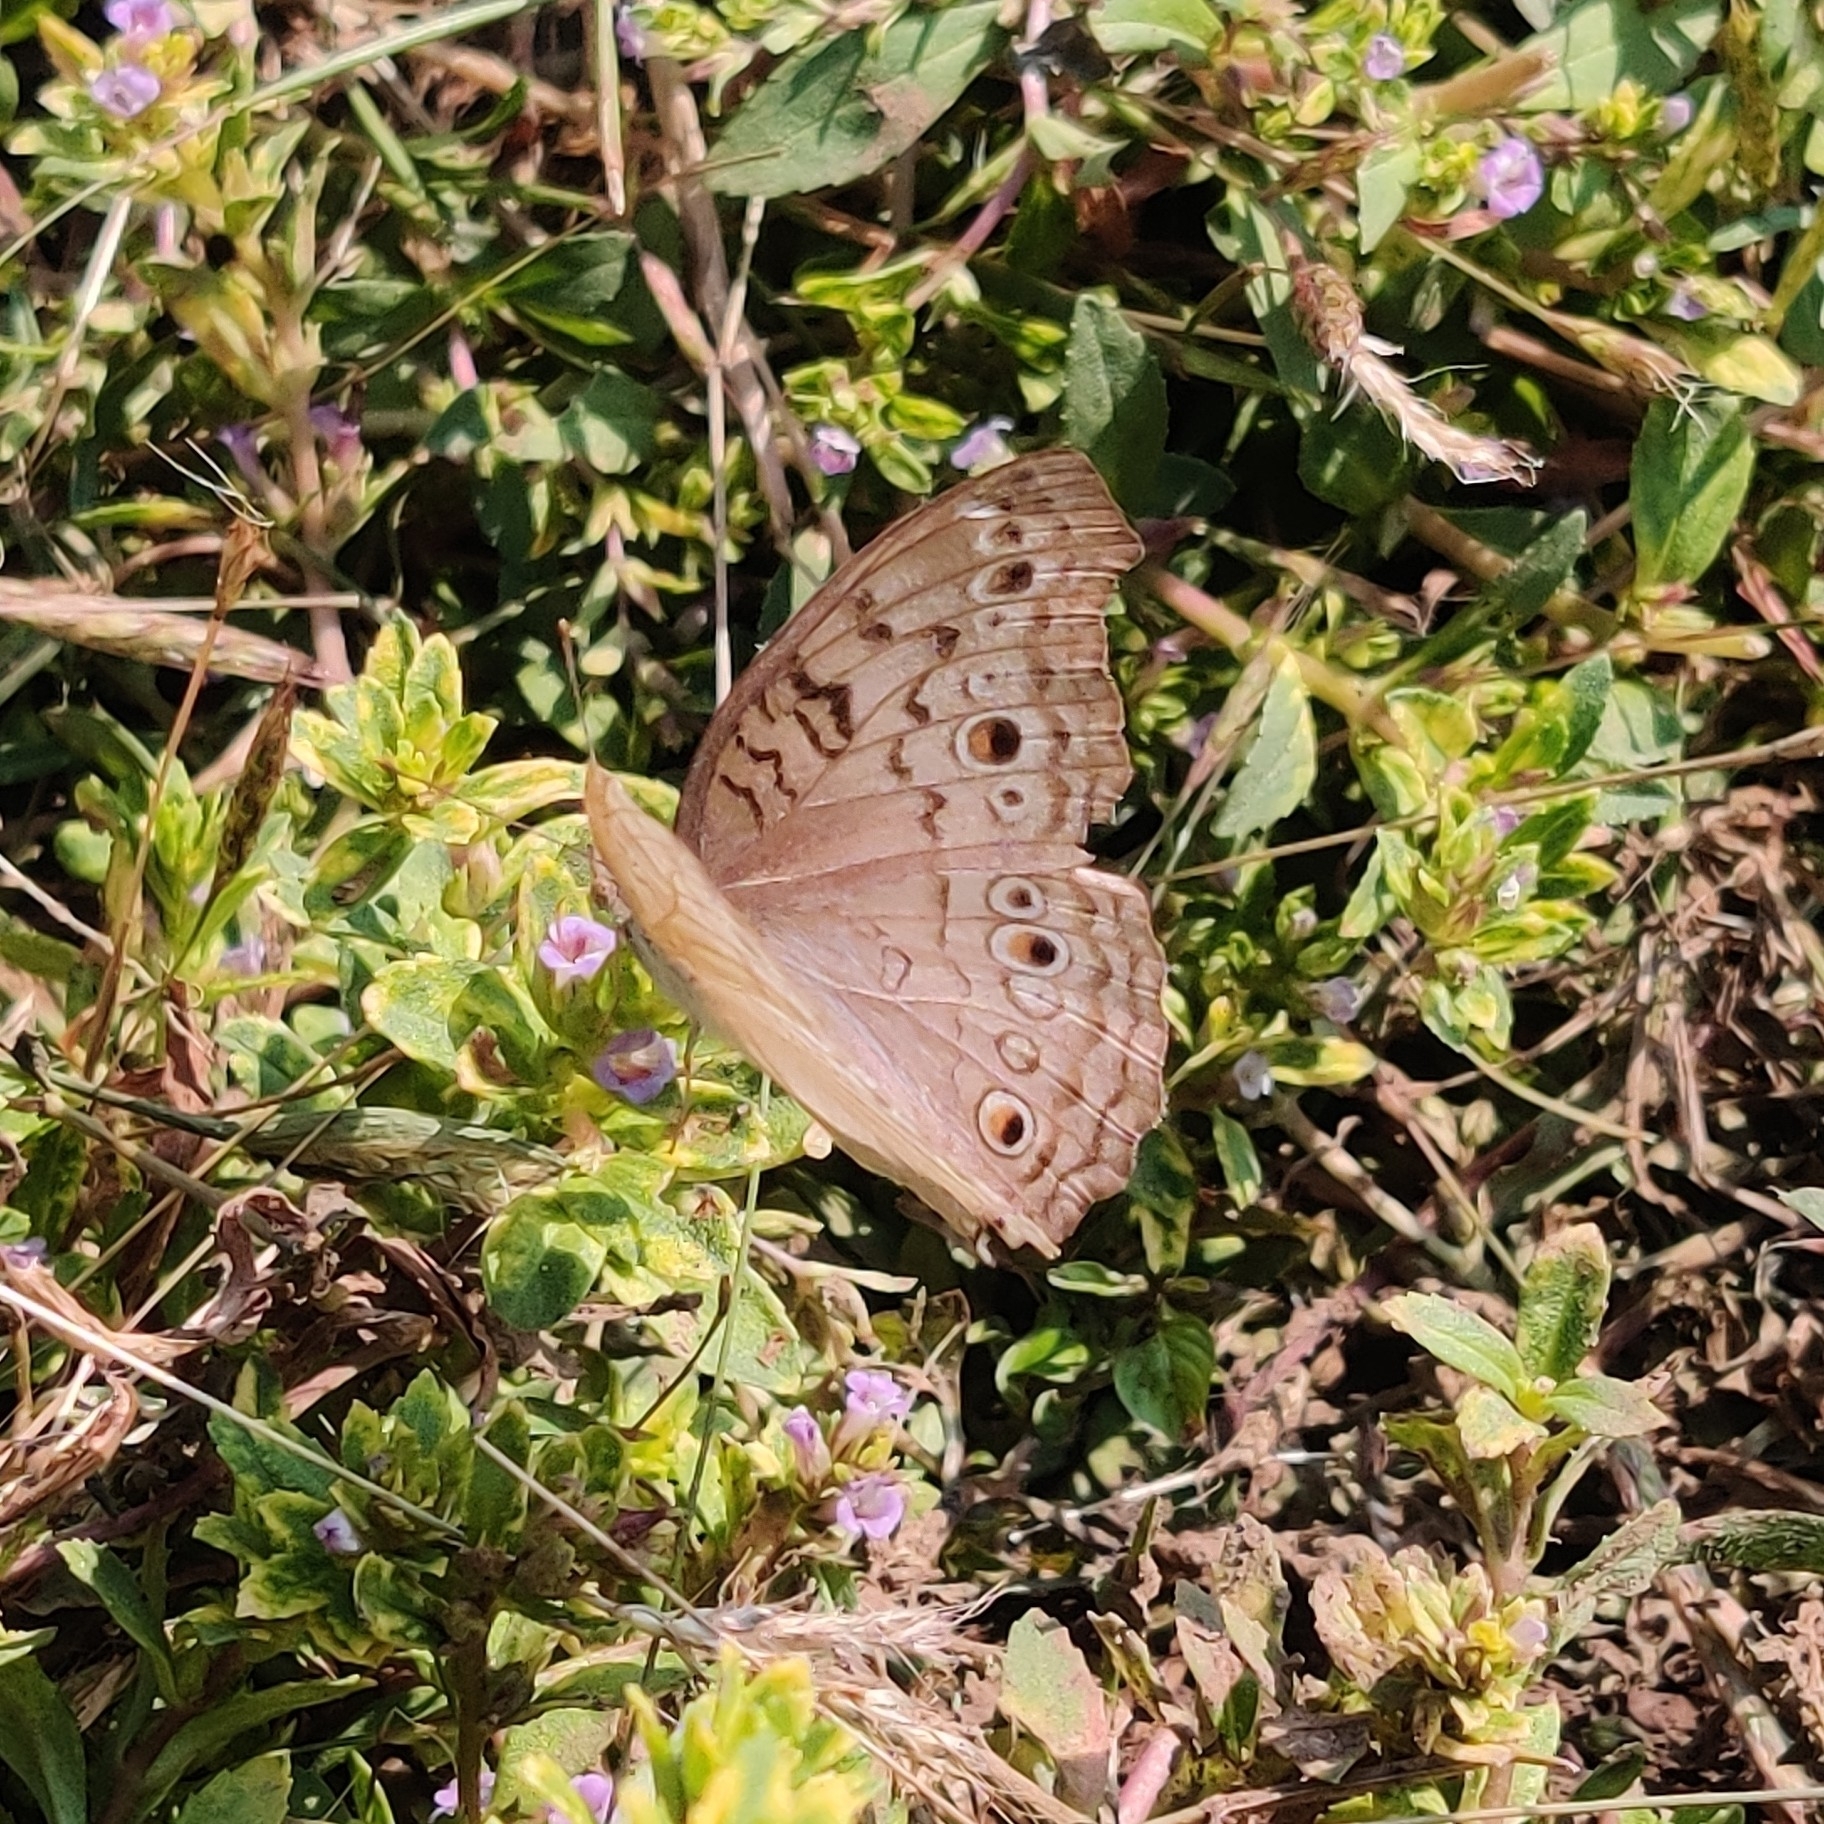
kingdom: Animalia
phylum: Arthropoda
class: Insecta
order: Lepidoptera
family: Nymphalidae
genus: Junonia
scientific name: Junonia atlites
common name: Grey pansy
